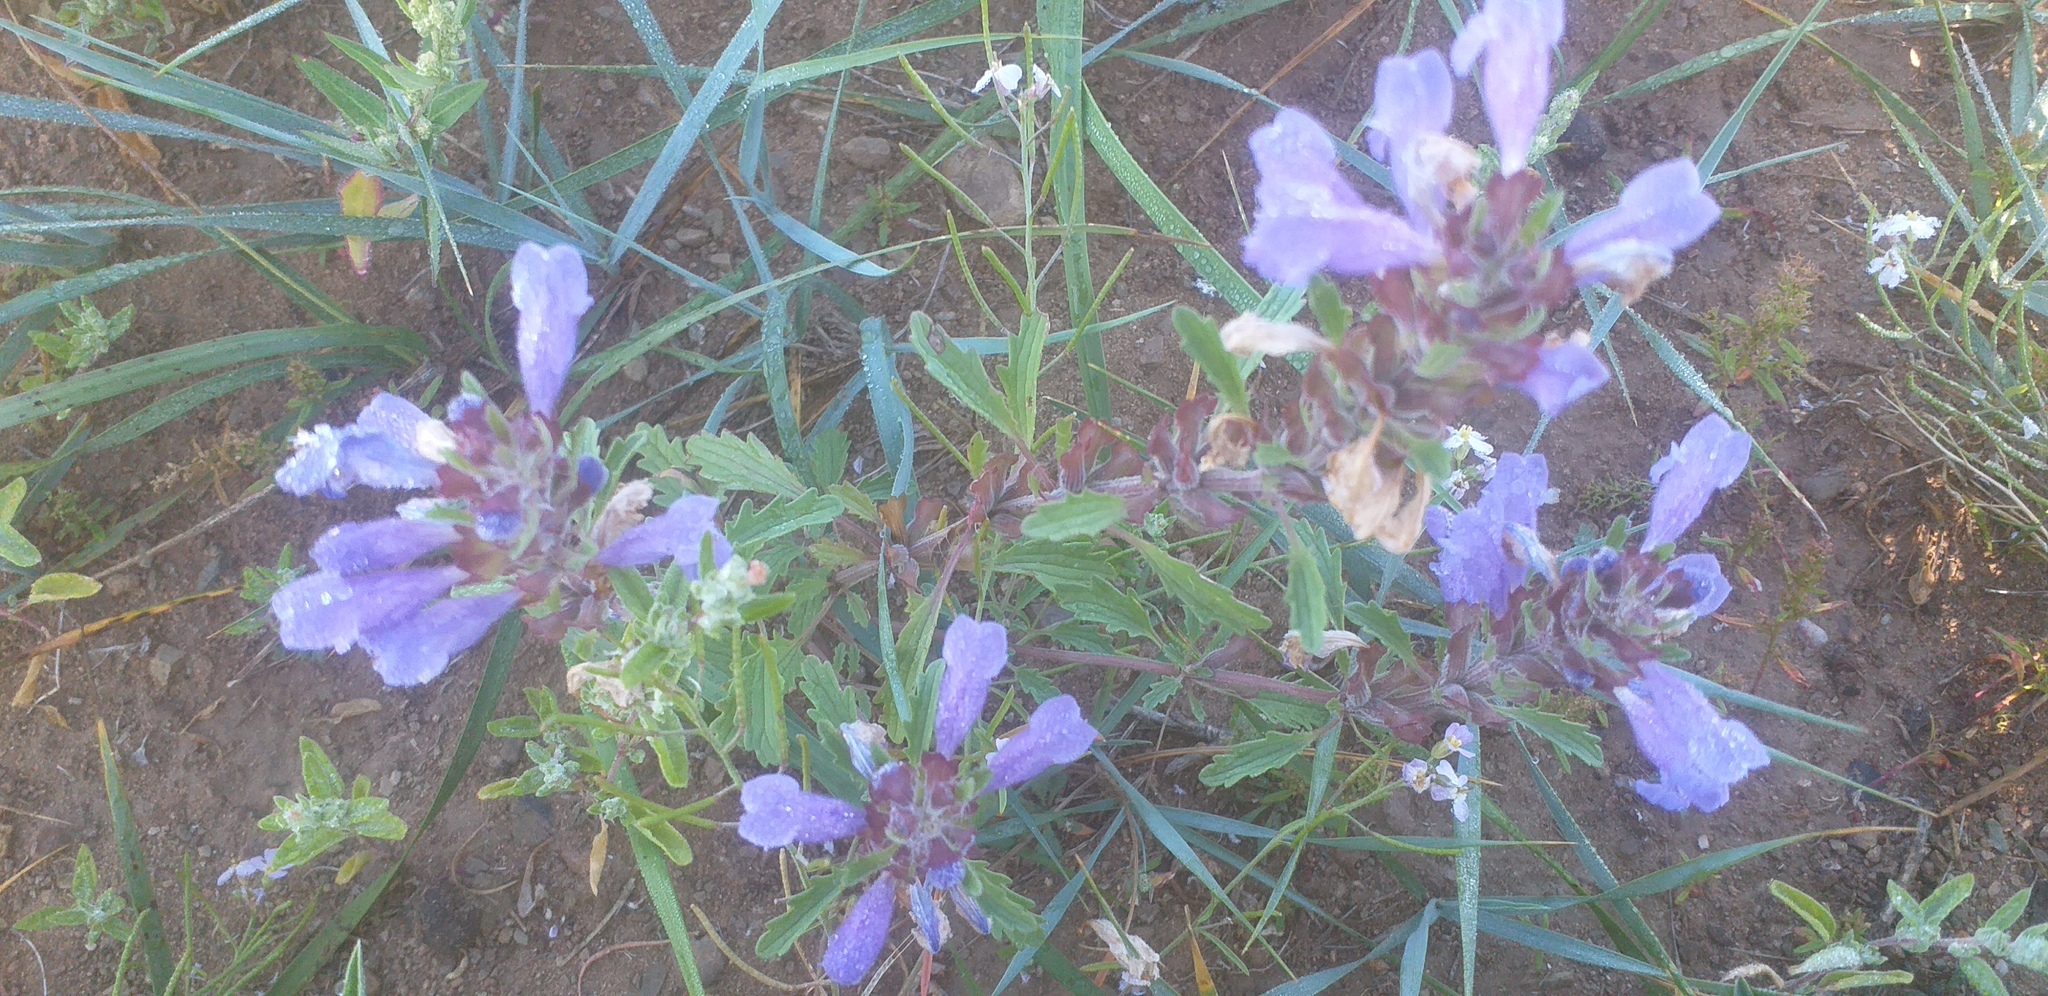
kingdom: Plantae
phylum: Tracheophyta
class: Magnoliopsida
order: Lamiales
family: Lamiaceae
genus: Dracocephalum
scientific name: Dracocephalum foetidum
